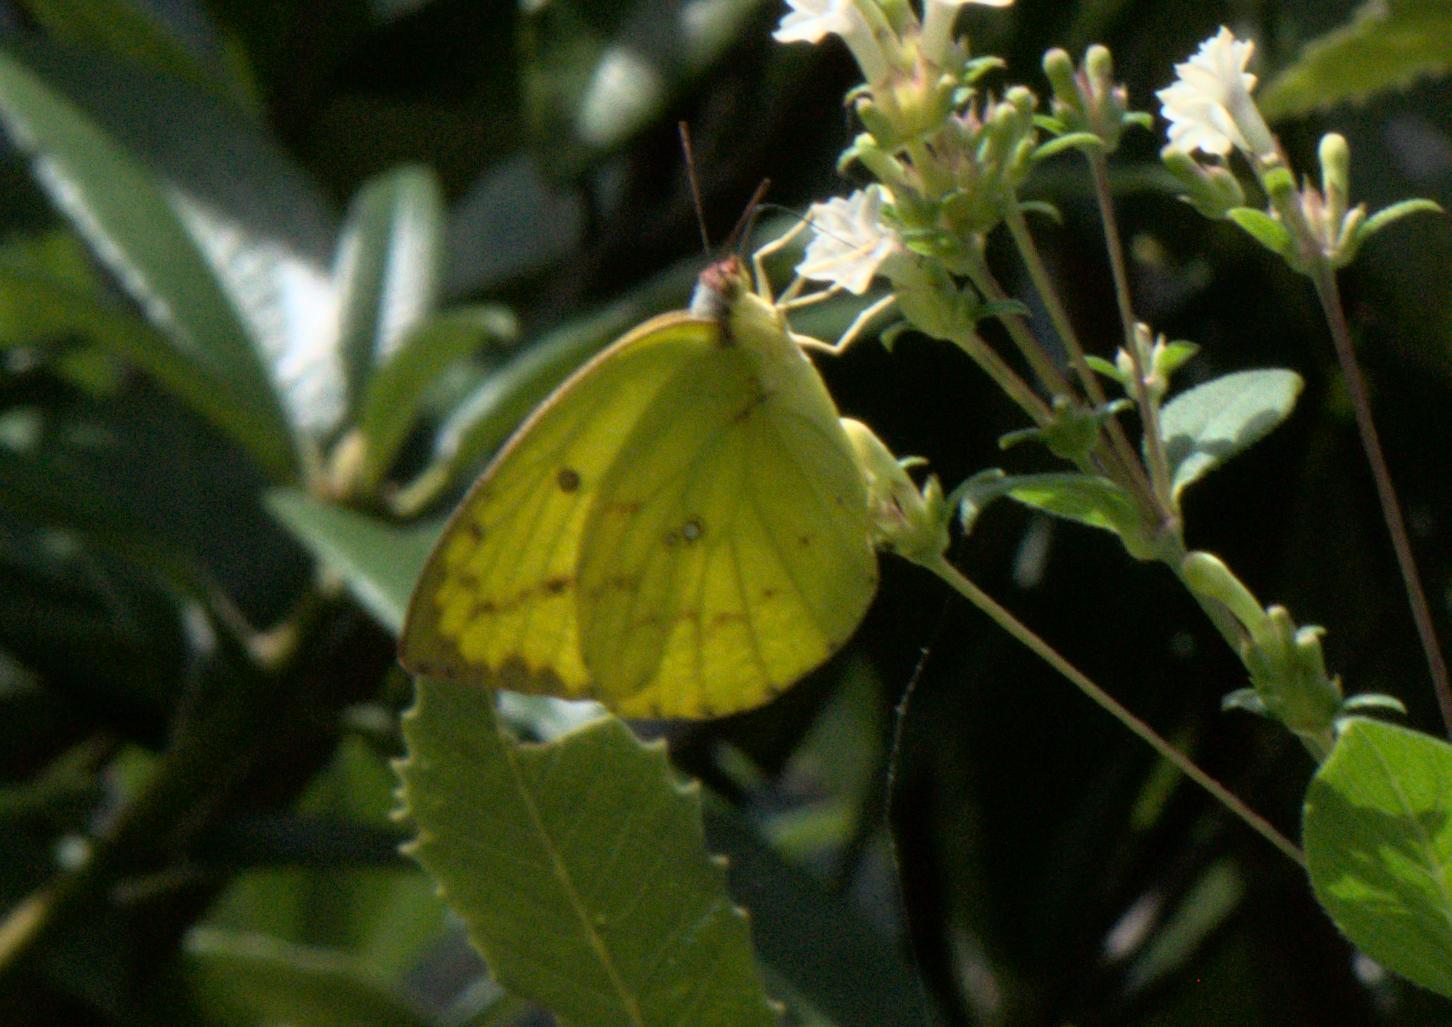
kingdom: Animalia
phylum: Arthropoda
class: Insecta
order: Lepidoptera
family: Pieridae
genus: Catopsilia
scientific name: Catopsilia pomona
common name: Common emigrant
